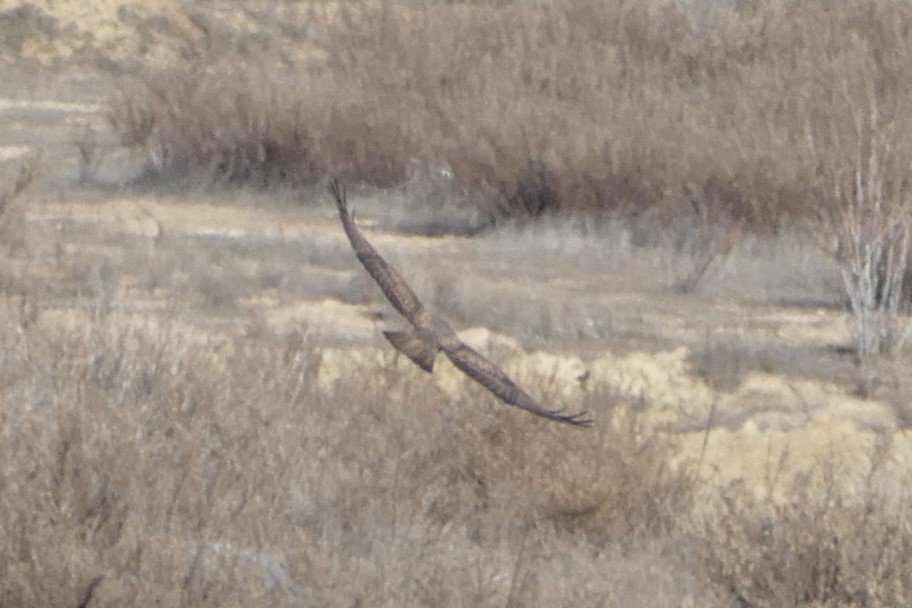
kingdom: Animalia
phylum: Chordata
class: Aves
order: Accipitriformes
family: Accipitridae
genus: Buteo
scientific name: Buteo buteo
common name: Common buzzard
